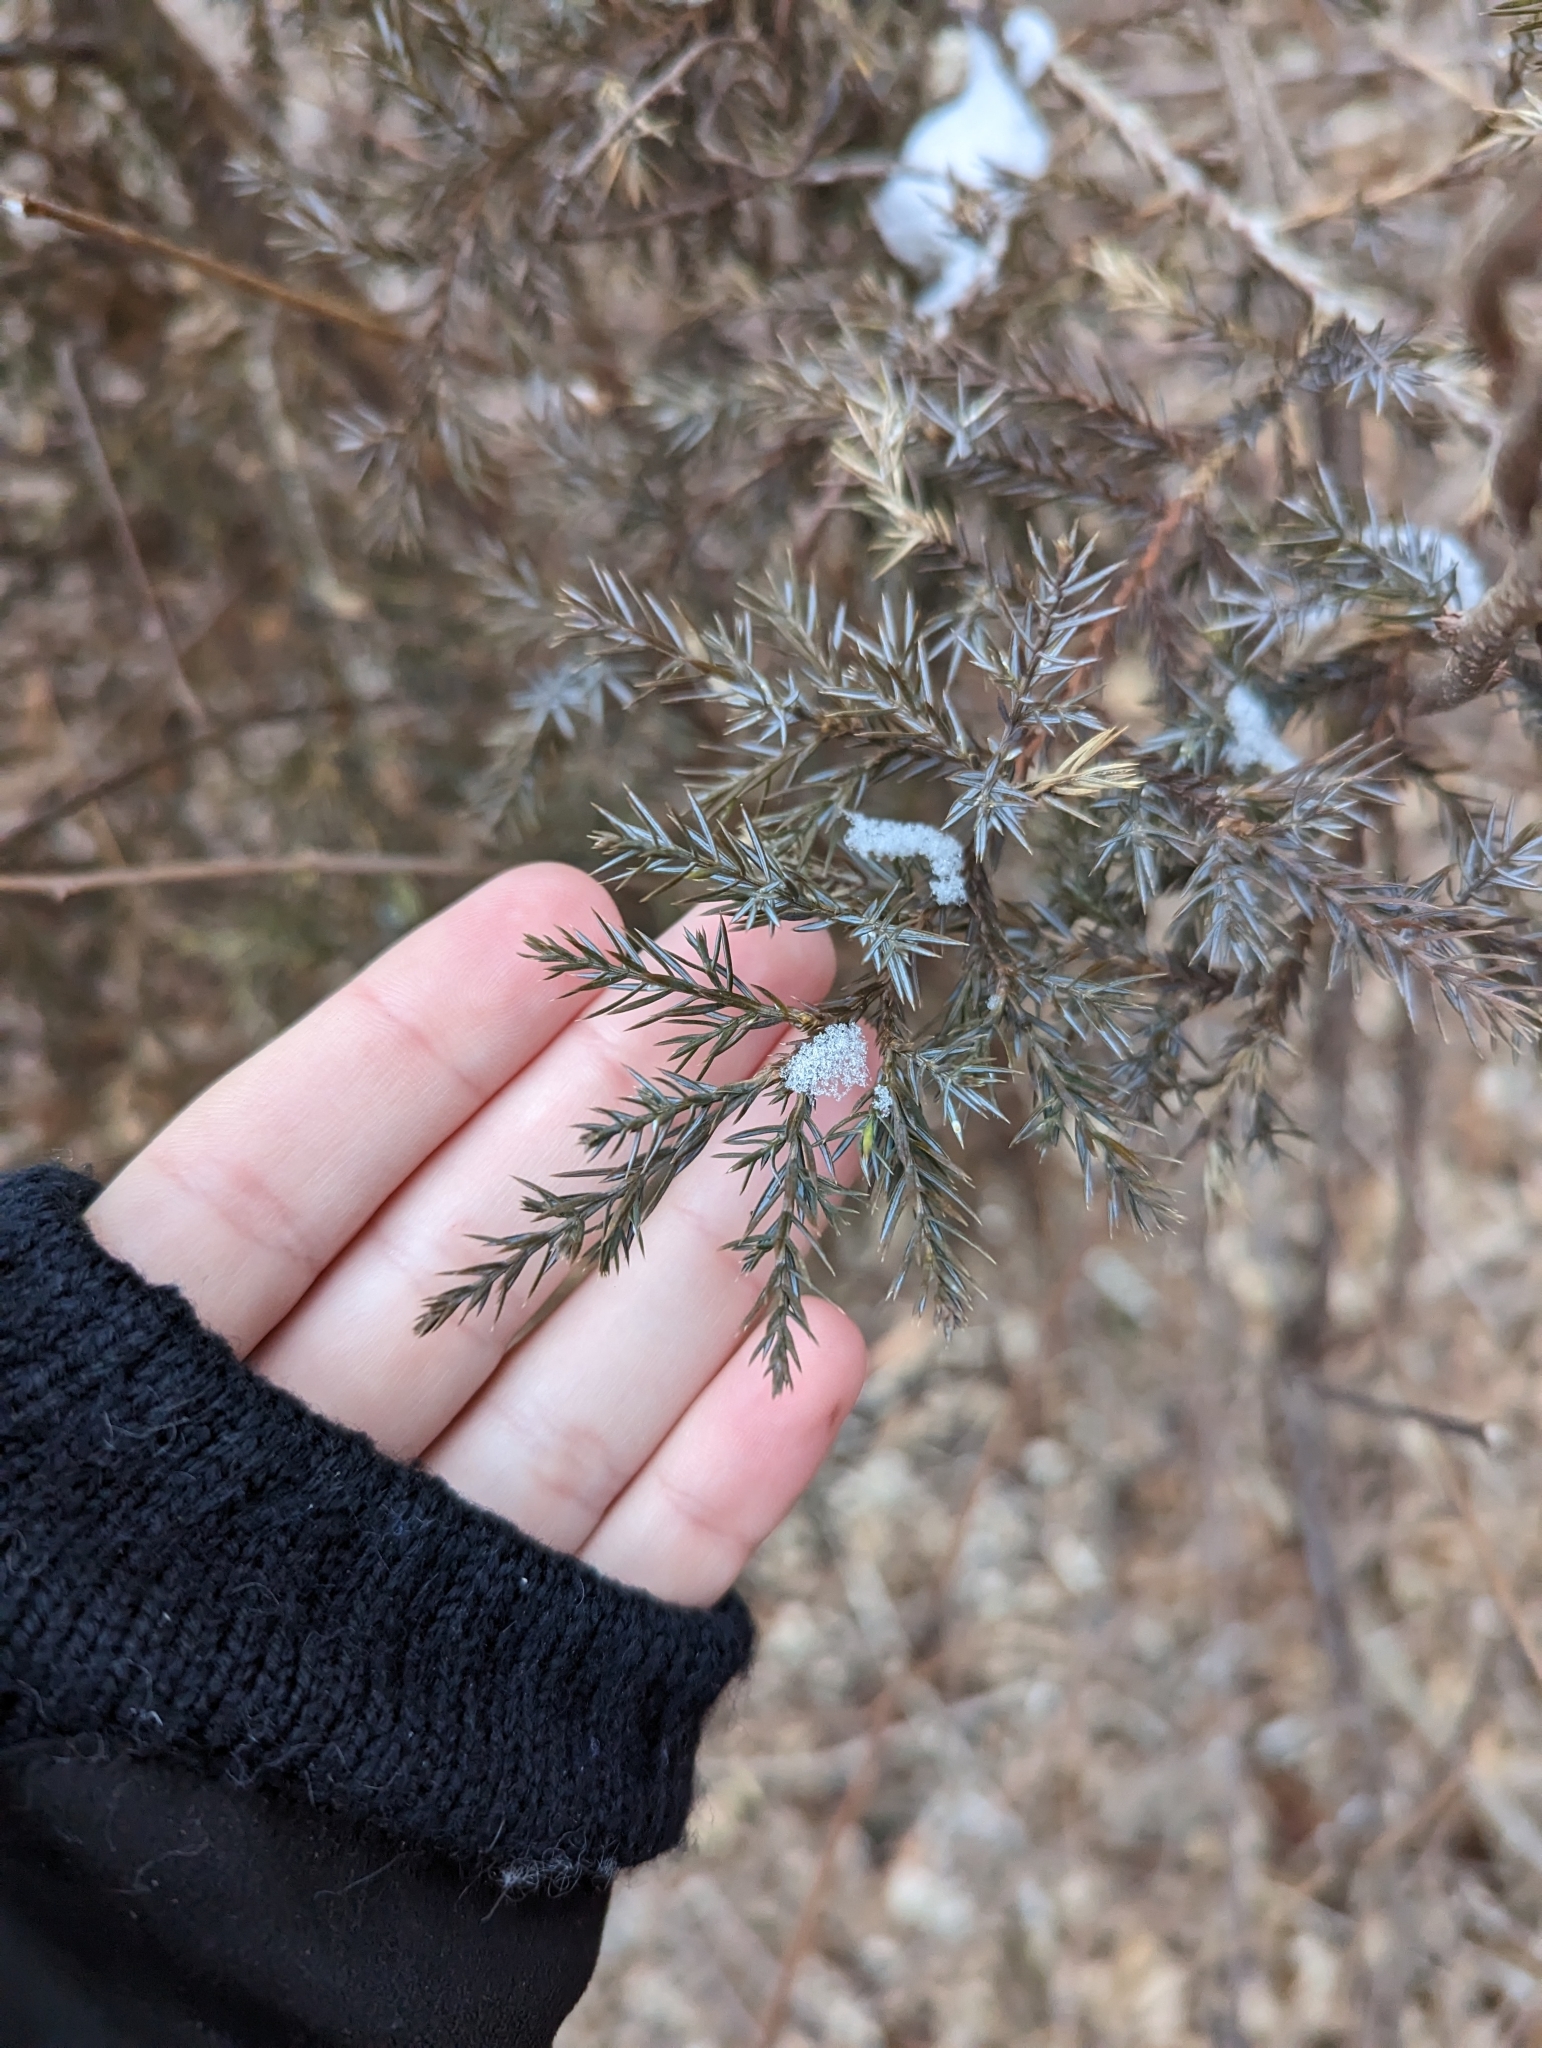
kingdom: Plantae
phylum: Tracheophyta
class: Pinopsida
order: Pinales
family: Cupressaceae
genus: Juniperus
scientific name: Juniperus virginiana
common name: Red juniper
